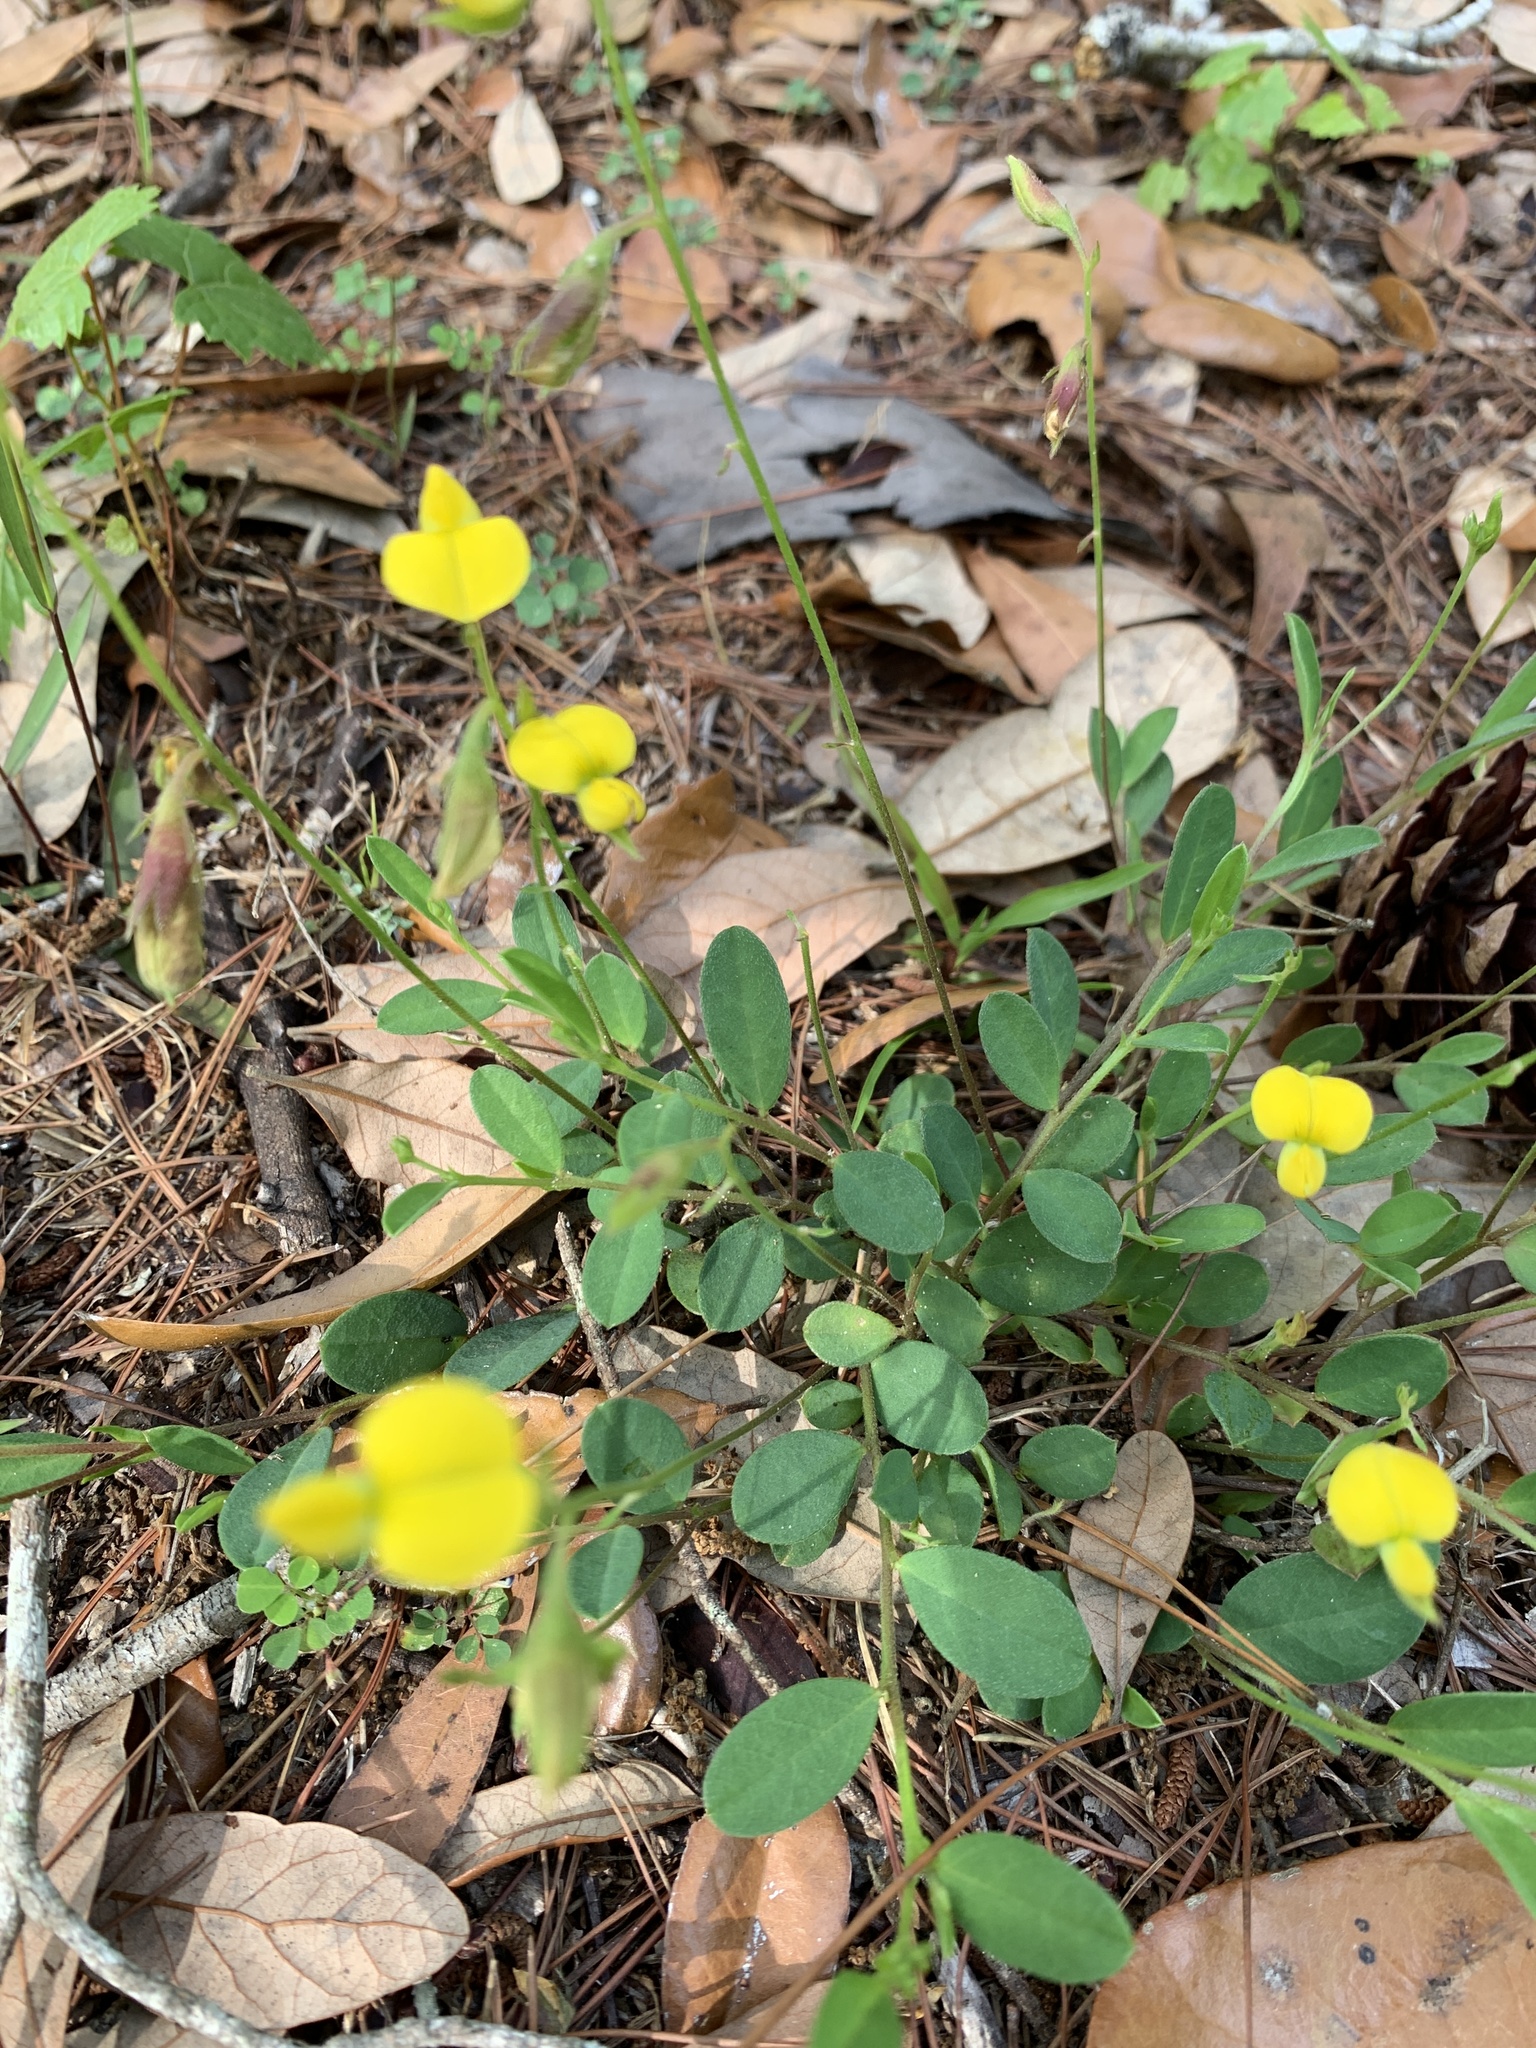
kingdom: Plantae
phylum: Tracheophyta
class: Magnoliopsida
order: Fabales
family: Fabaceae
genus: Crotalaria
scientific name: Crotalaria rotundifolia
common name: Prostrate rattlebox
